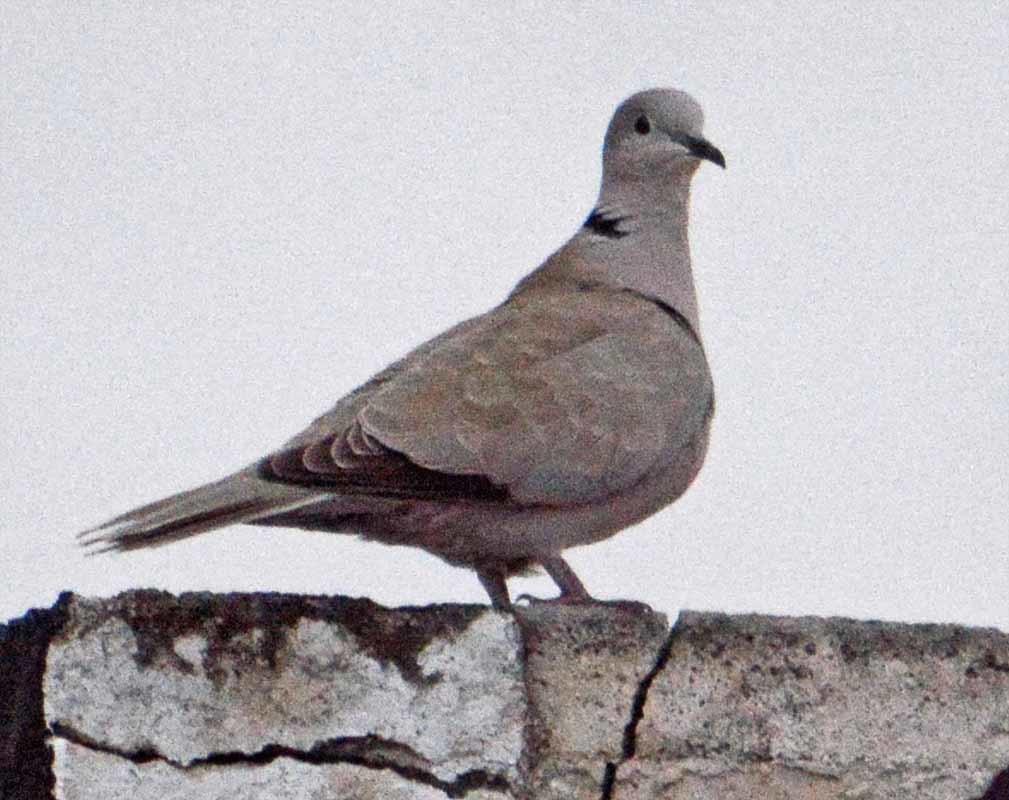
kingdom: Animalia
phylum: Chordata
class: Aves
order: Columbiformes
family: Columbidae
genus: Streptopelia
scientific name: Streptopelia decaocto
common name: Eurasian collared dove
